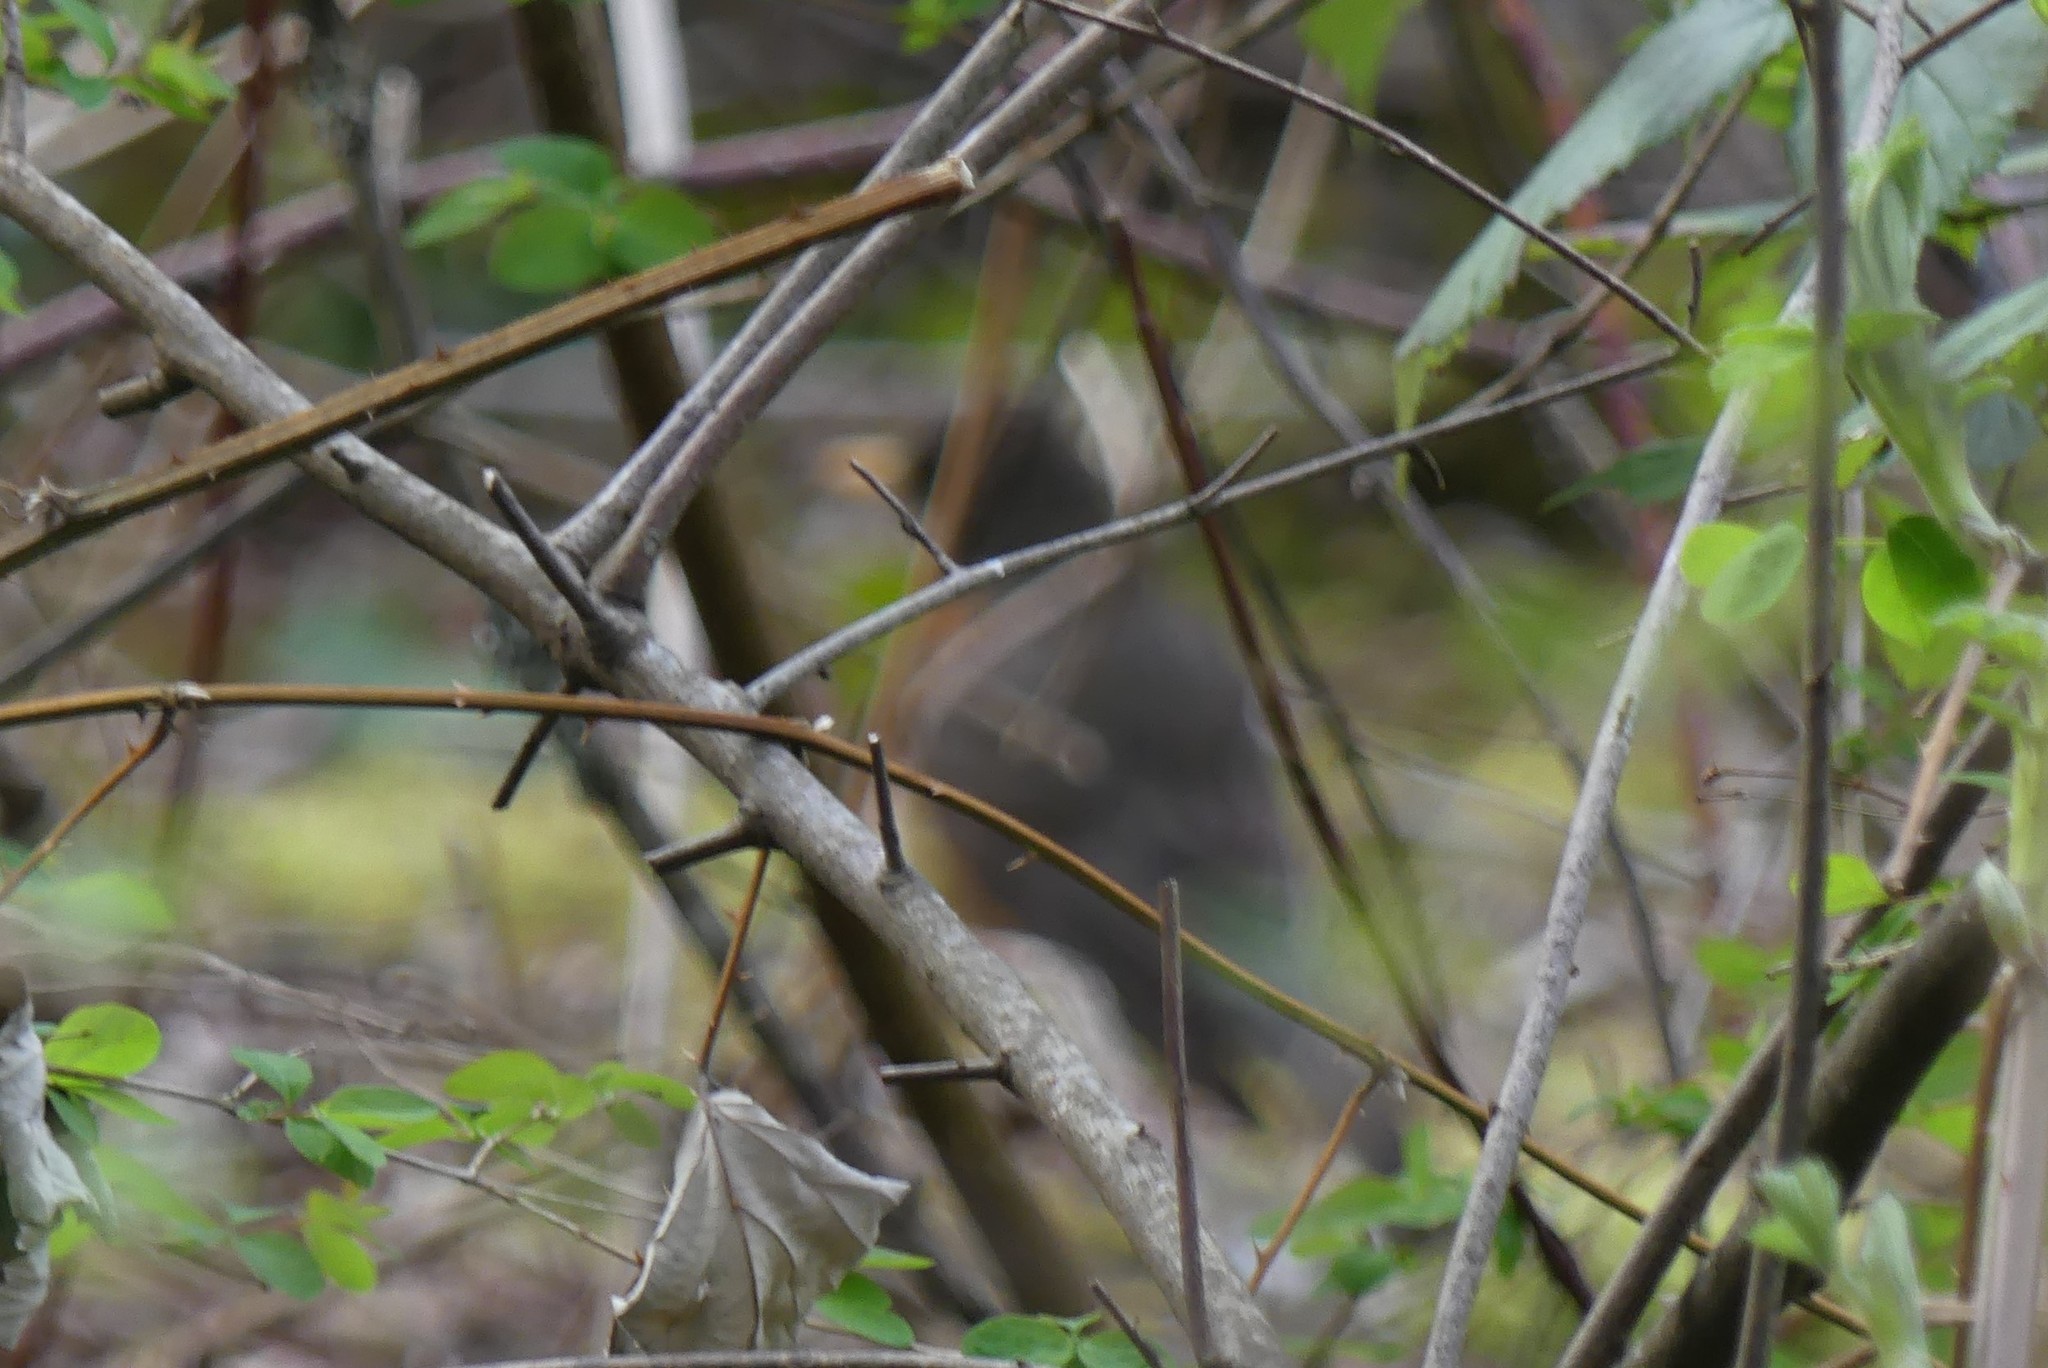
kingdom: Animalia
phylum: Chordata
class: Aves
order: Passeriformes
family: Turdidae
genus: Turdus
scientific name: Turdus migratorius
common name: American robin
